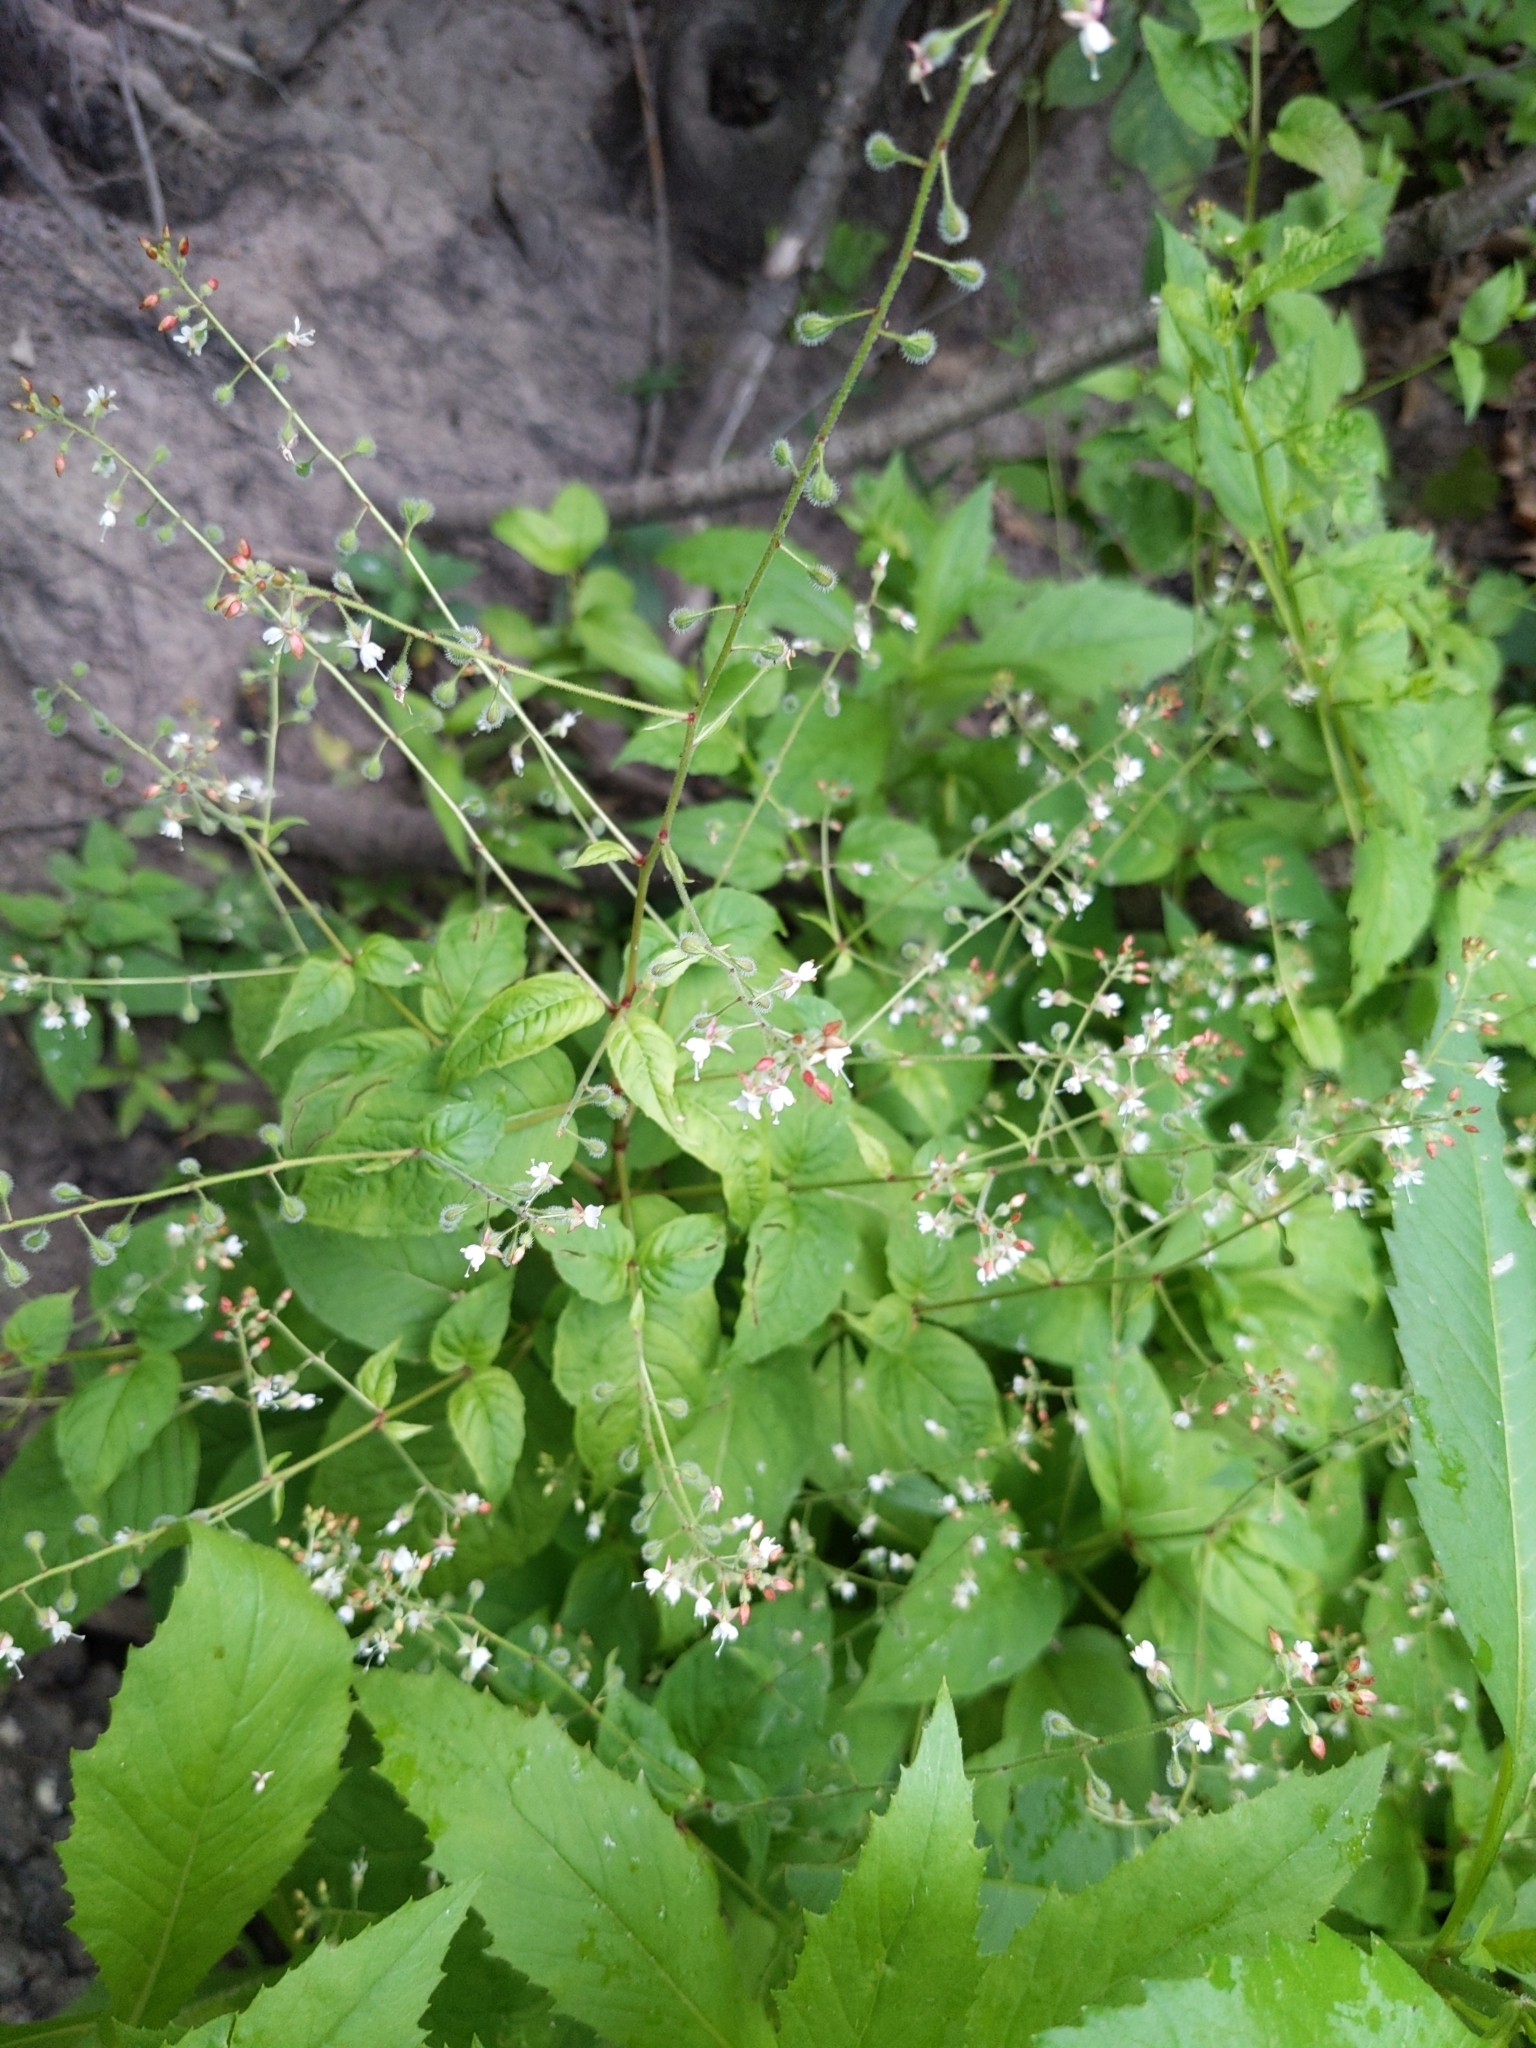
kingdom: Plantae
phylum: Tracheophyta
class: Magnoliopsida
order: Myrtales
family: Onagraceae
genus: Circaea
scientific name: Circaea canadensis
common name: Broad-leaved enchanter's nightshade
